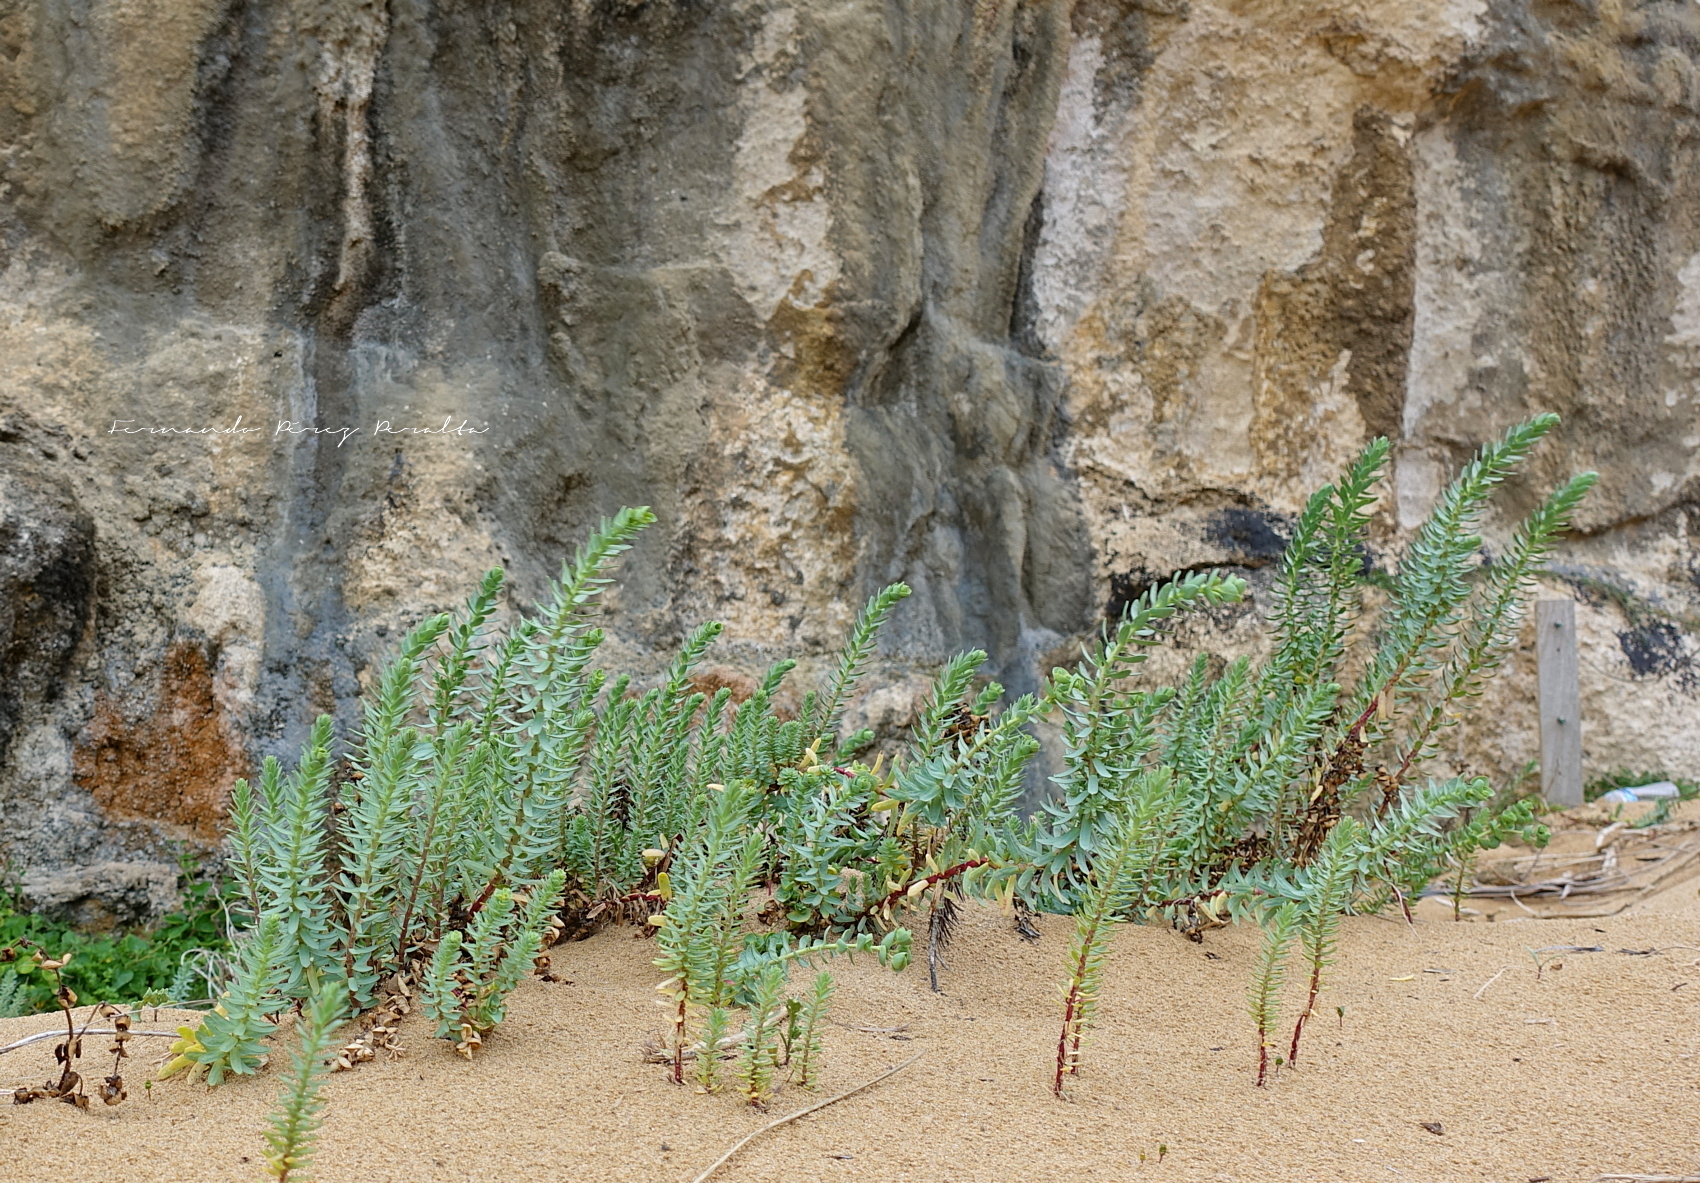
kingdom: Plantae
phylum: Tracheophyta
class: Magnoliopsida
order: Malpighiales
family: Euphorbiaceae
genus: Euphorbia
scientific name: Euphorbia paralias
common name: Sea spurge
